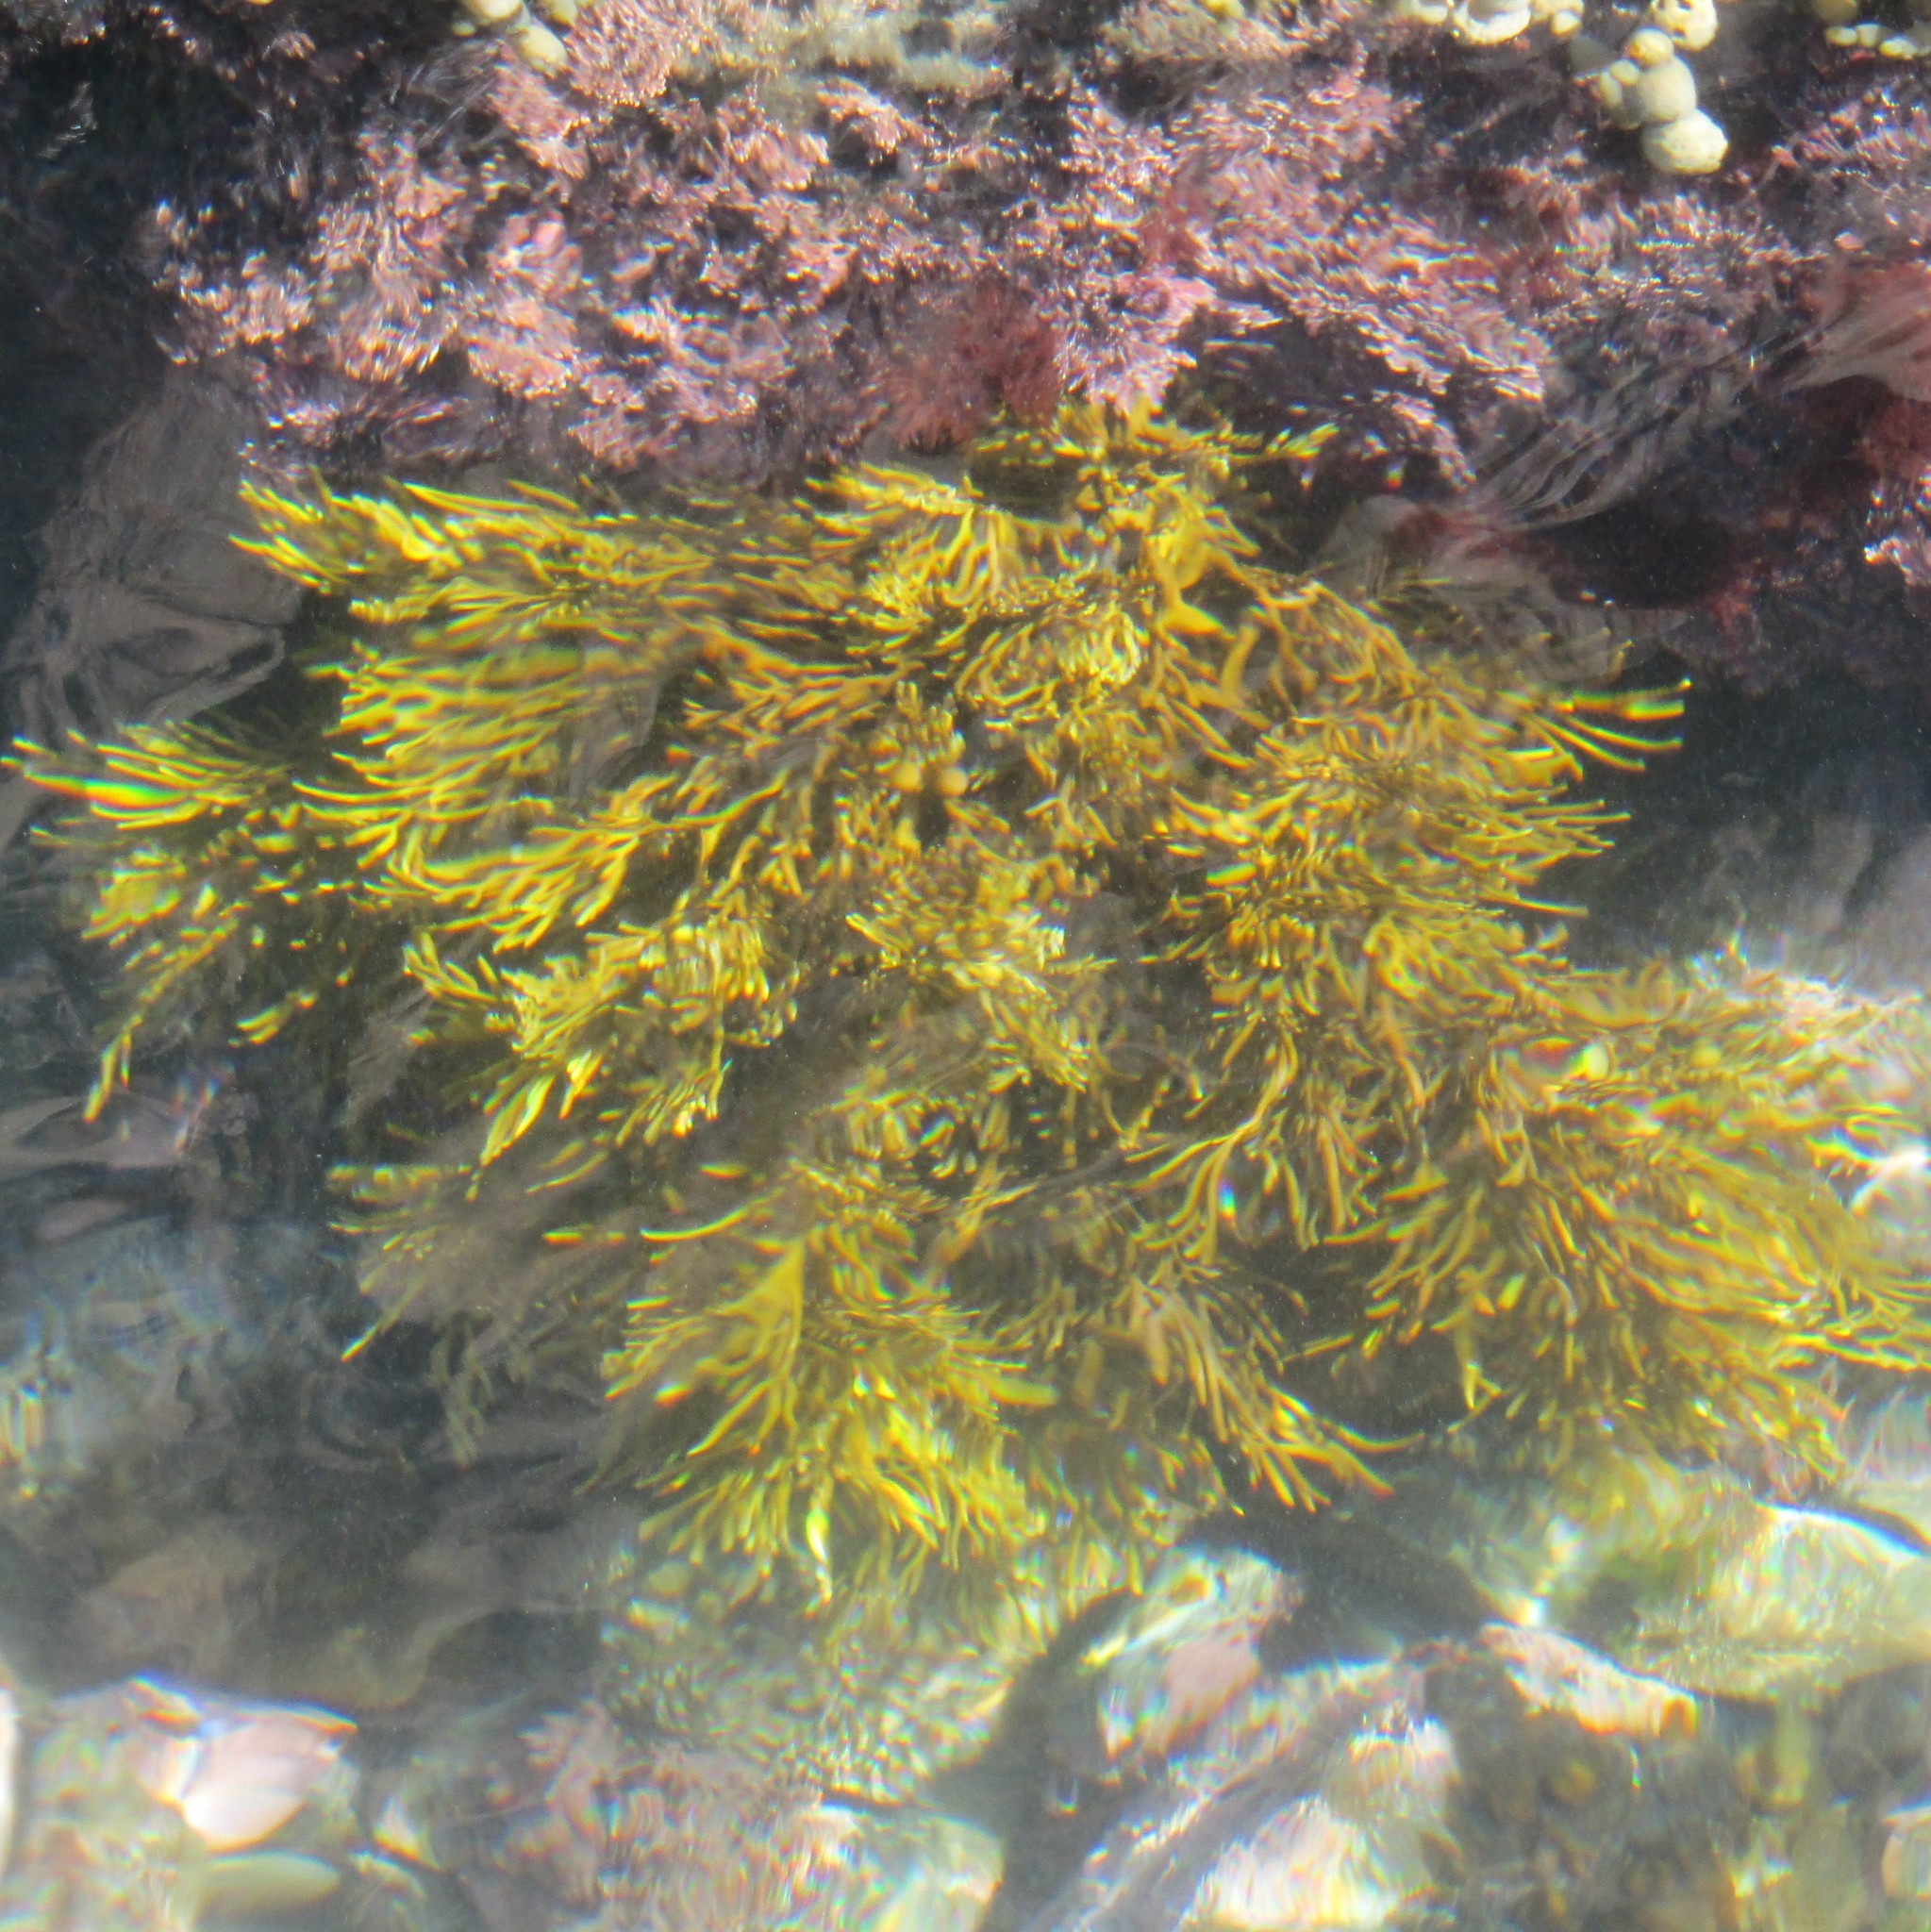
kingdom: Chromista
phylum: Ochrophyta
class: Phaeophyceae
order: Fucales
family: Sargassaceae
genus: Cystophora
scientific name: Cystophora retroflexa
